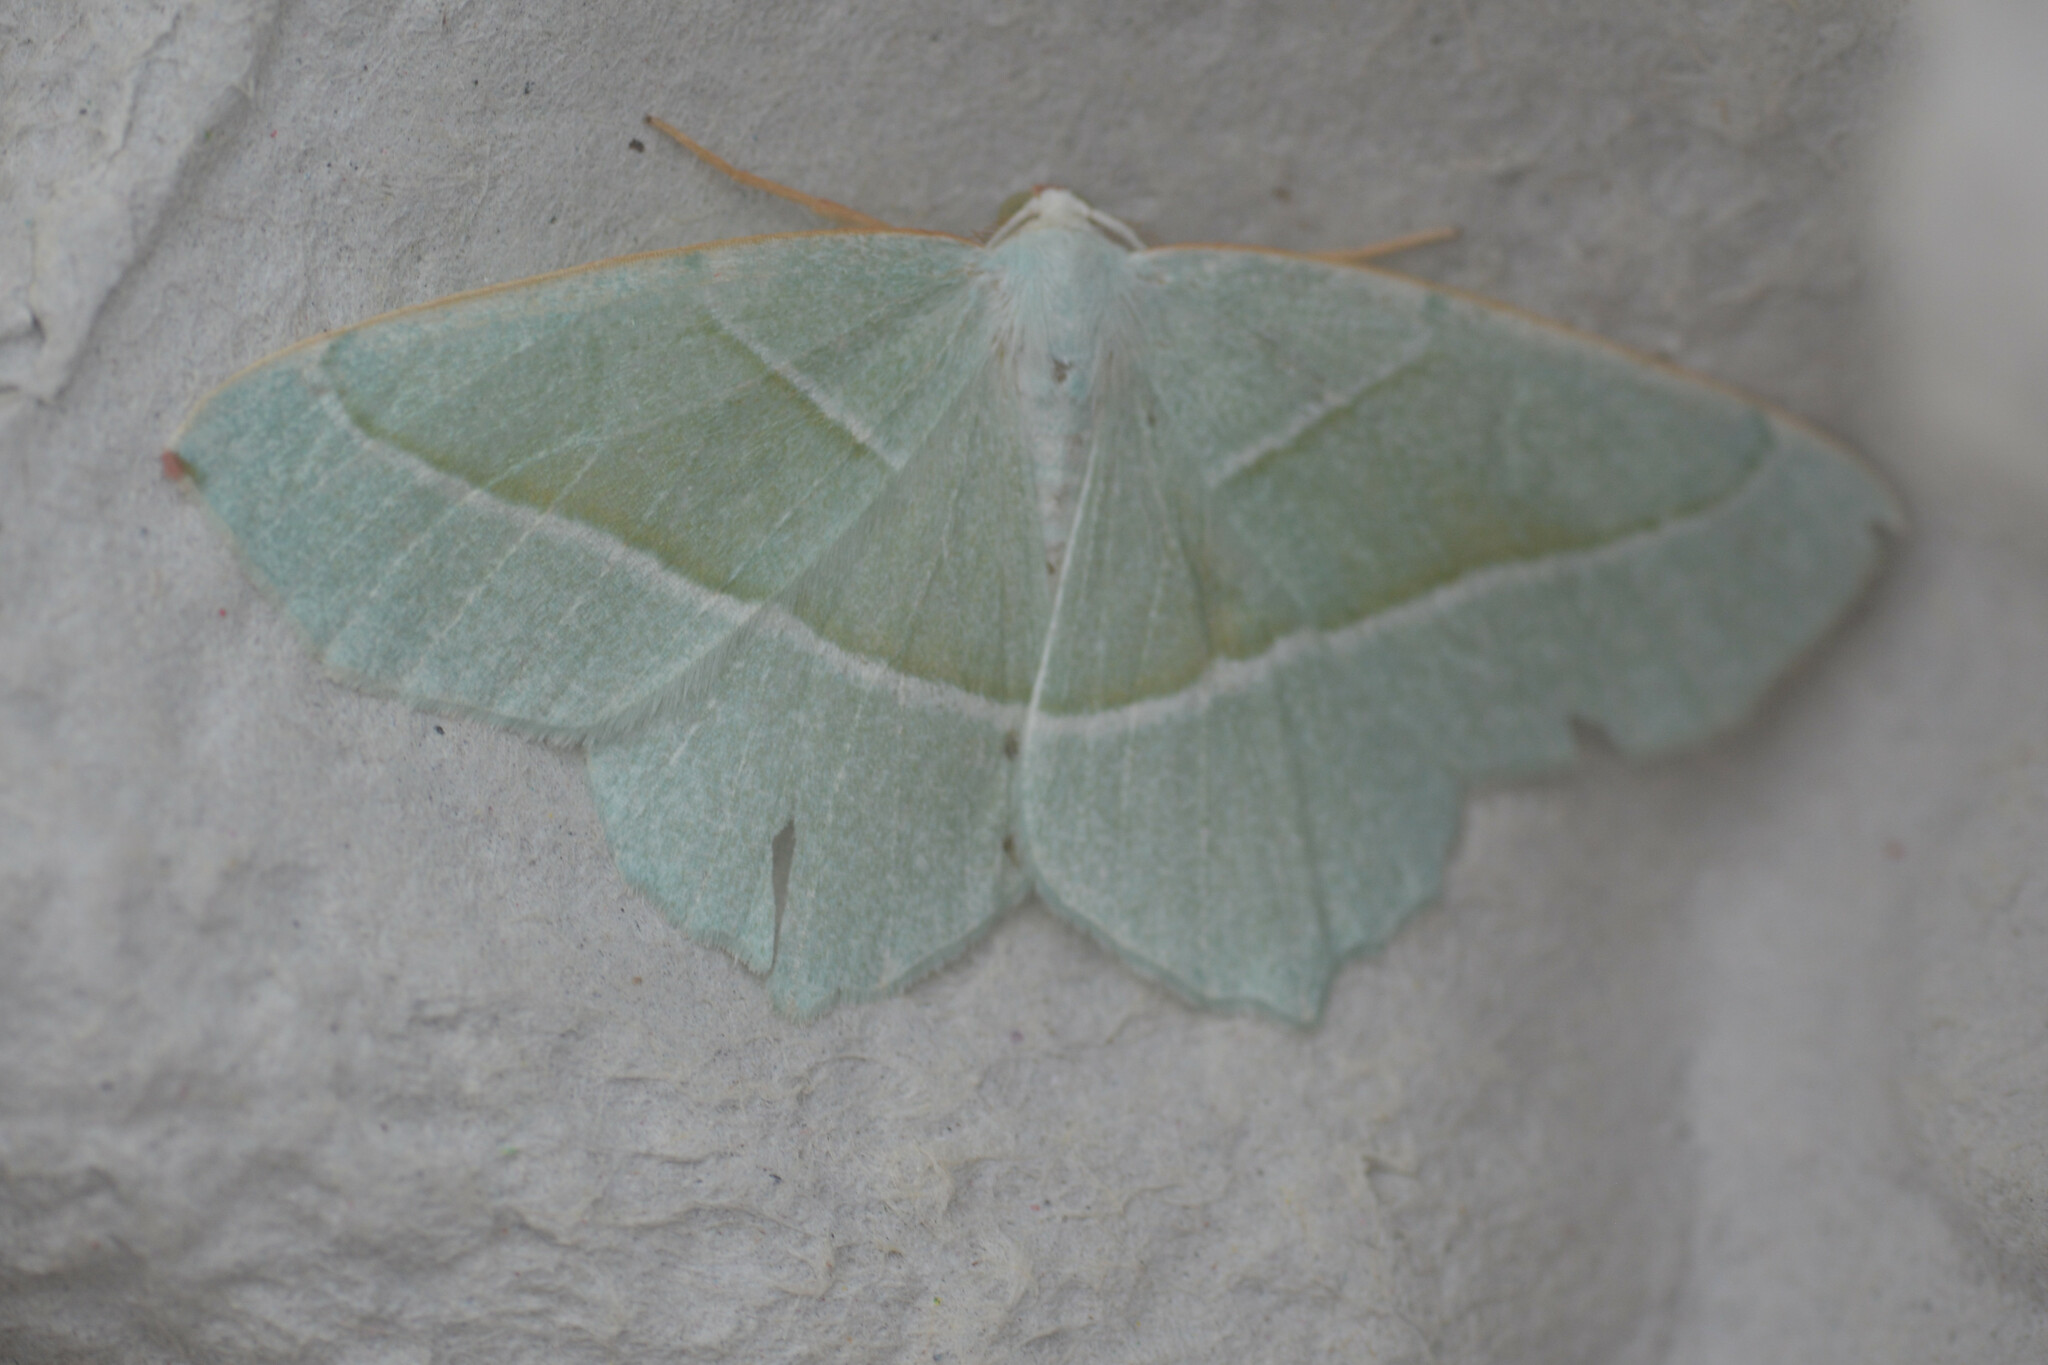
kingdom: Animalia
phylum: Arthropoda
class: Insecta
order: Lepidoptera
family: Geometridae
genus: Campaea
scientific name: Campaea margaritaria
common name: Light emerald
